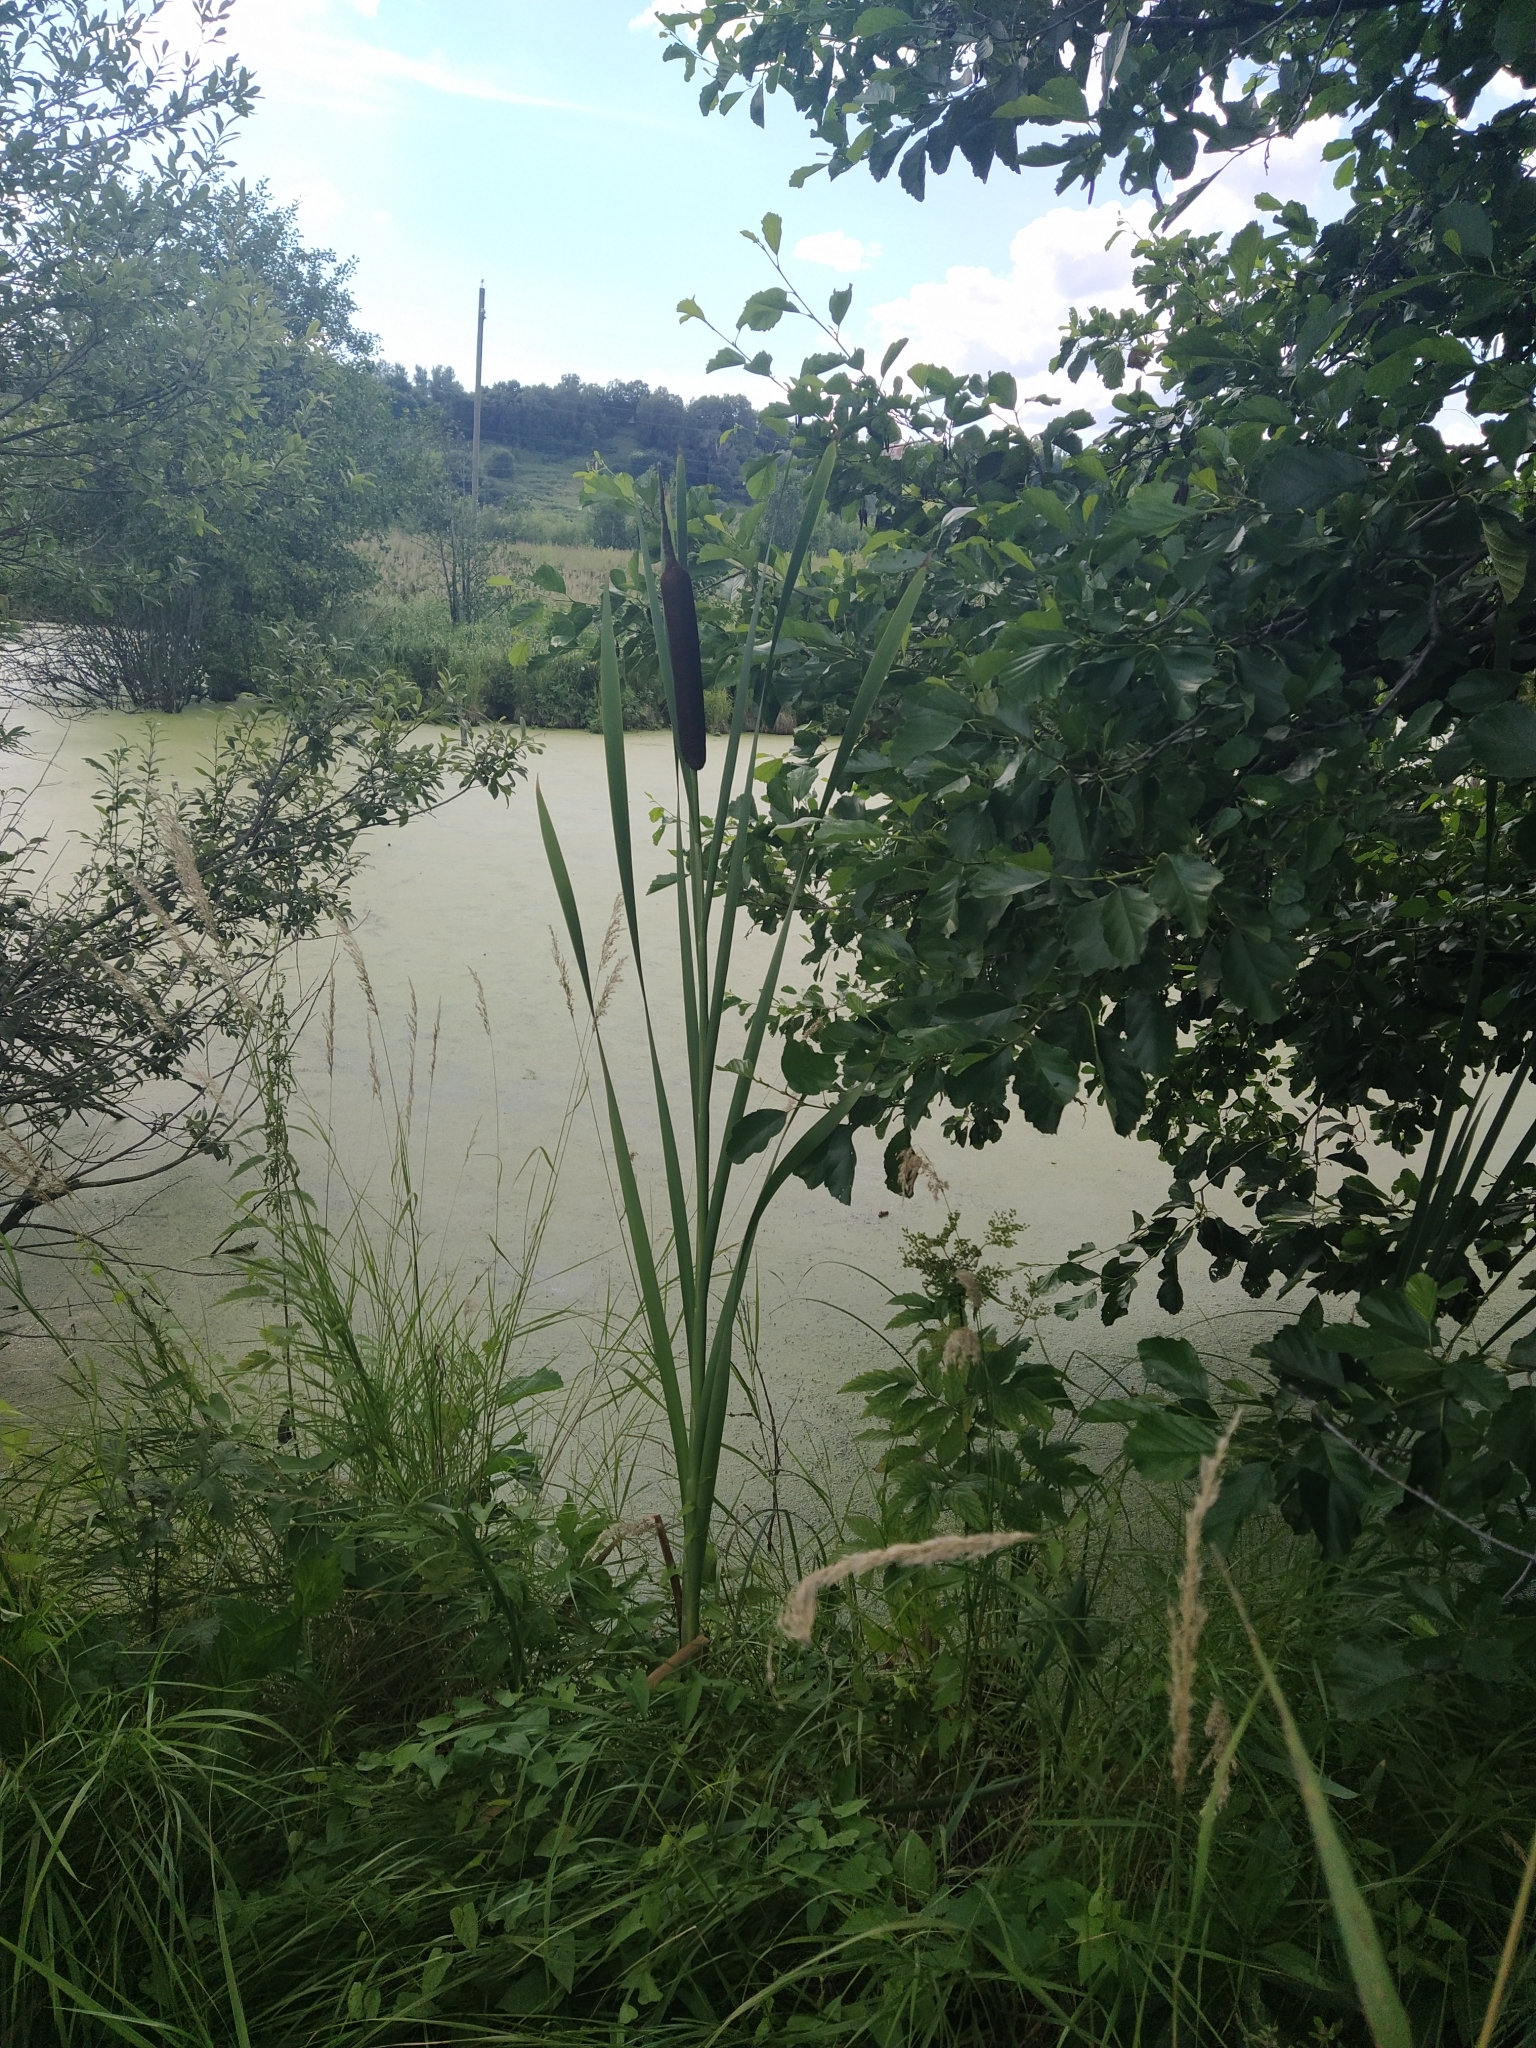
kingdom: Plantae
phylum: Tracheophyta
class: Liliopsida
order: Poales
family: Typhaceae
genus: Typha
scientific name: Typha latifolia
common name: Broadleaf cattail
